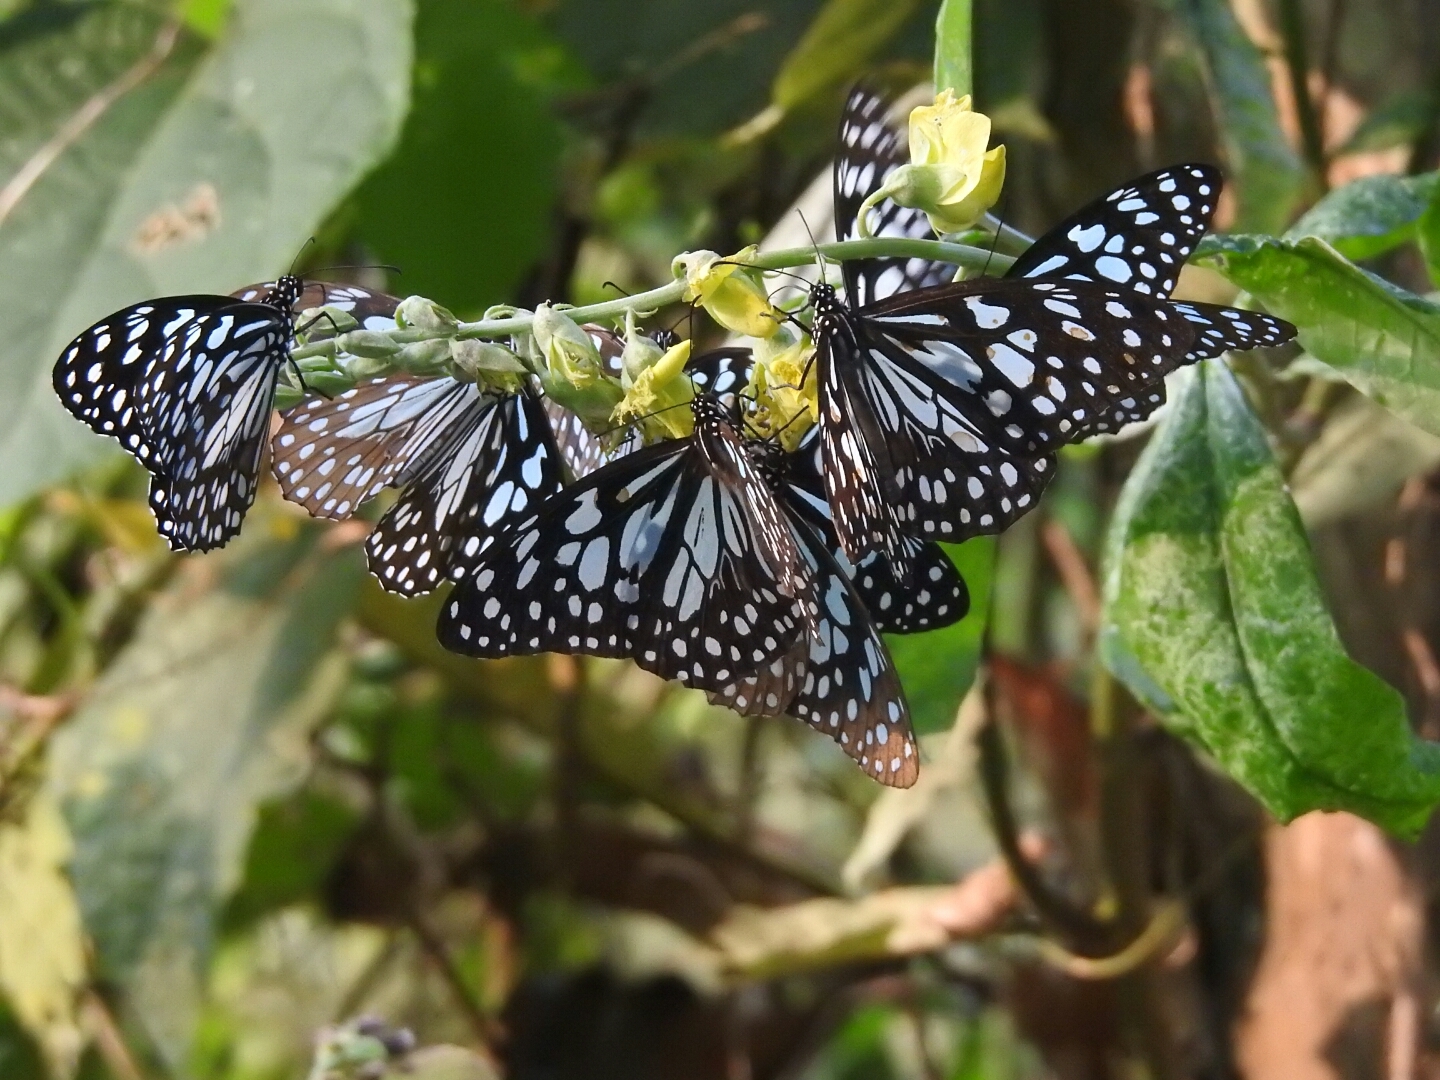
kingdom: Animalia
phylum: Arthropoda
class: Insecta
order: Lepidoptera
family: Nymphalidae
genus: Tirumala
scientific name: Tirumala limniace
